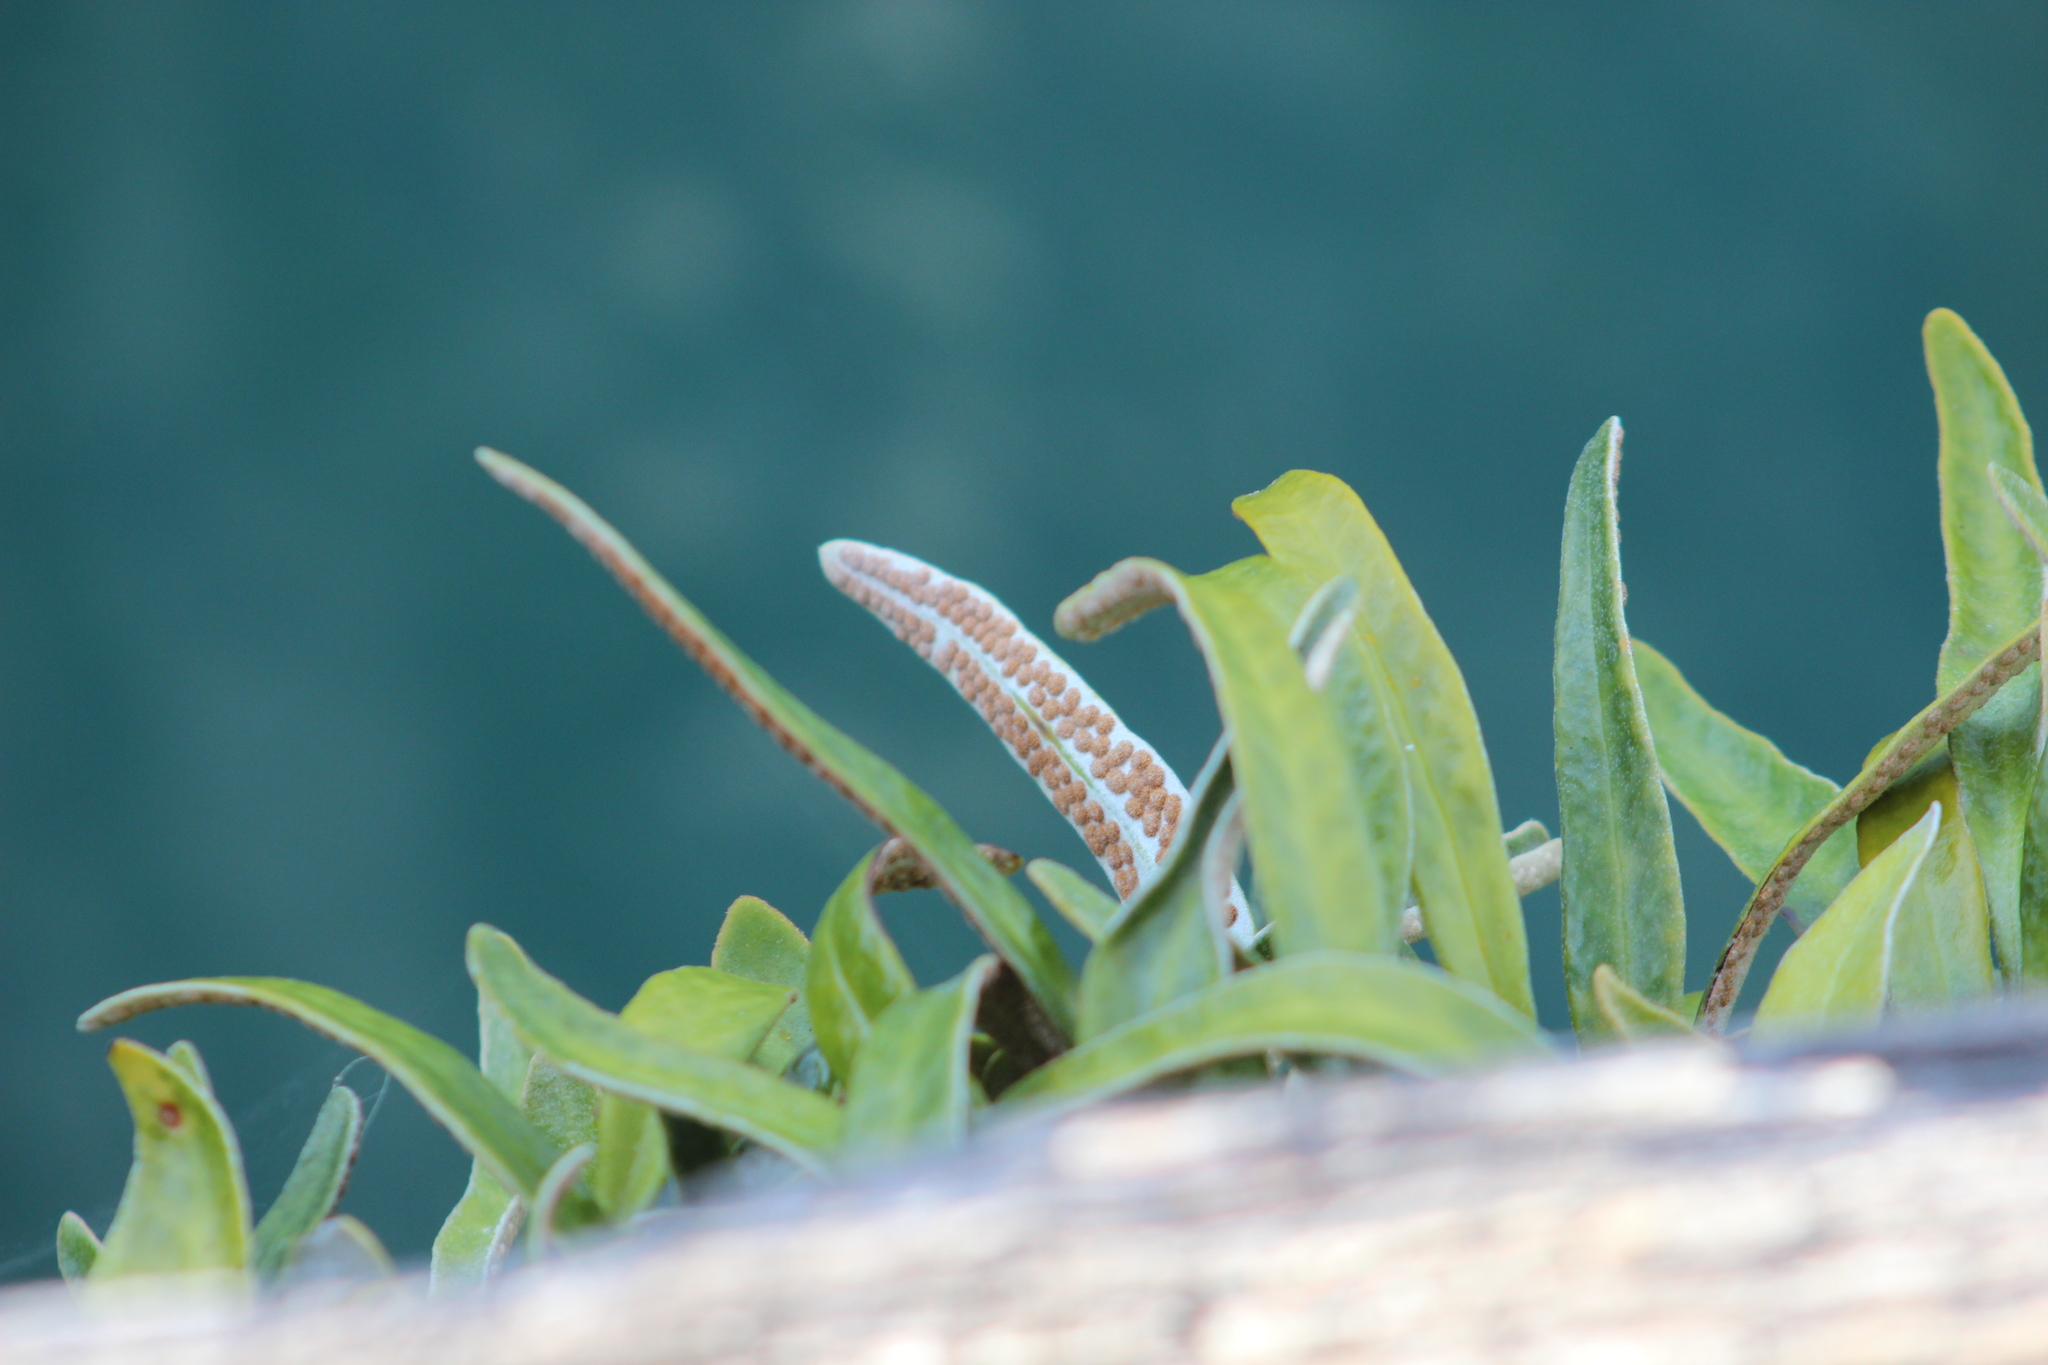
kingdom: Plantae
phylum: Tracheophyta
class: Polypodiopsida
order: Polypodiales
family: Polypodiaceae
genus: Pyrrosia
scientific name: Pyrrosia eleagnifolia
